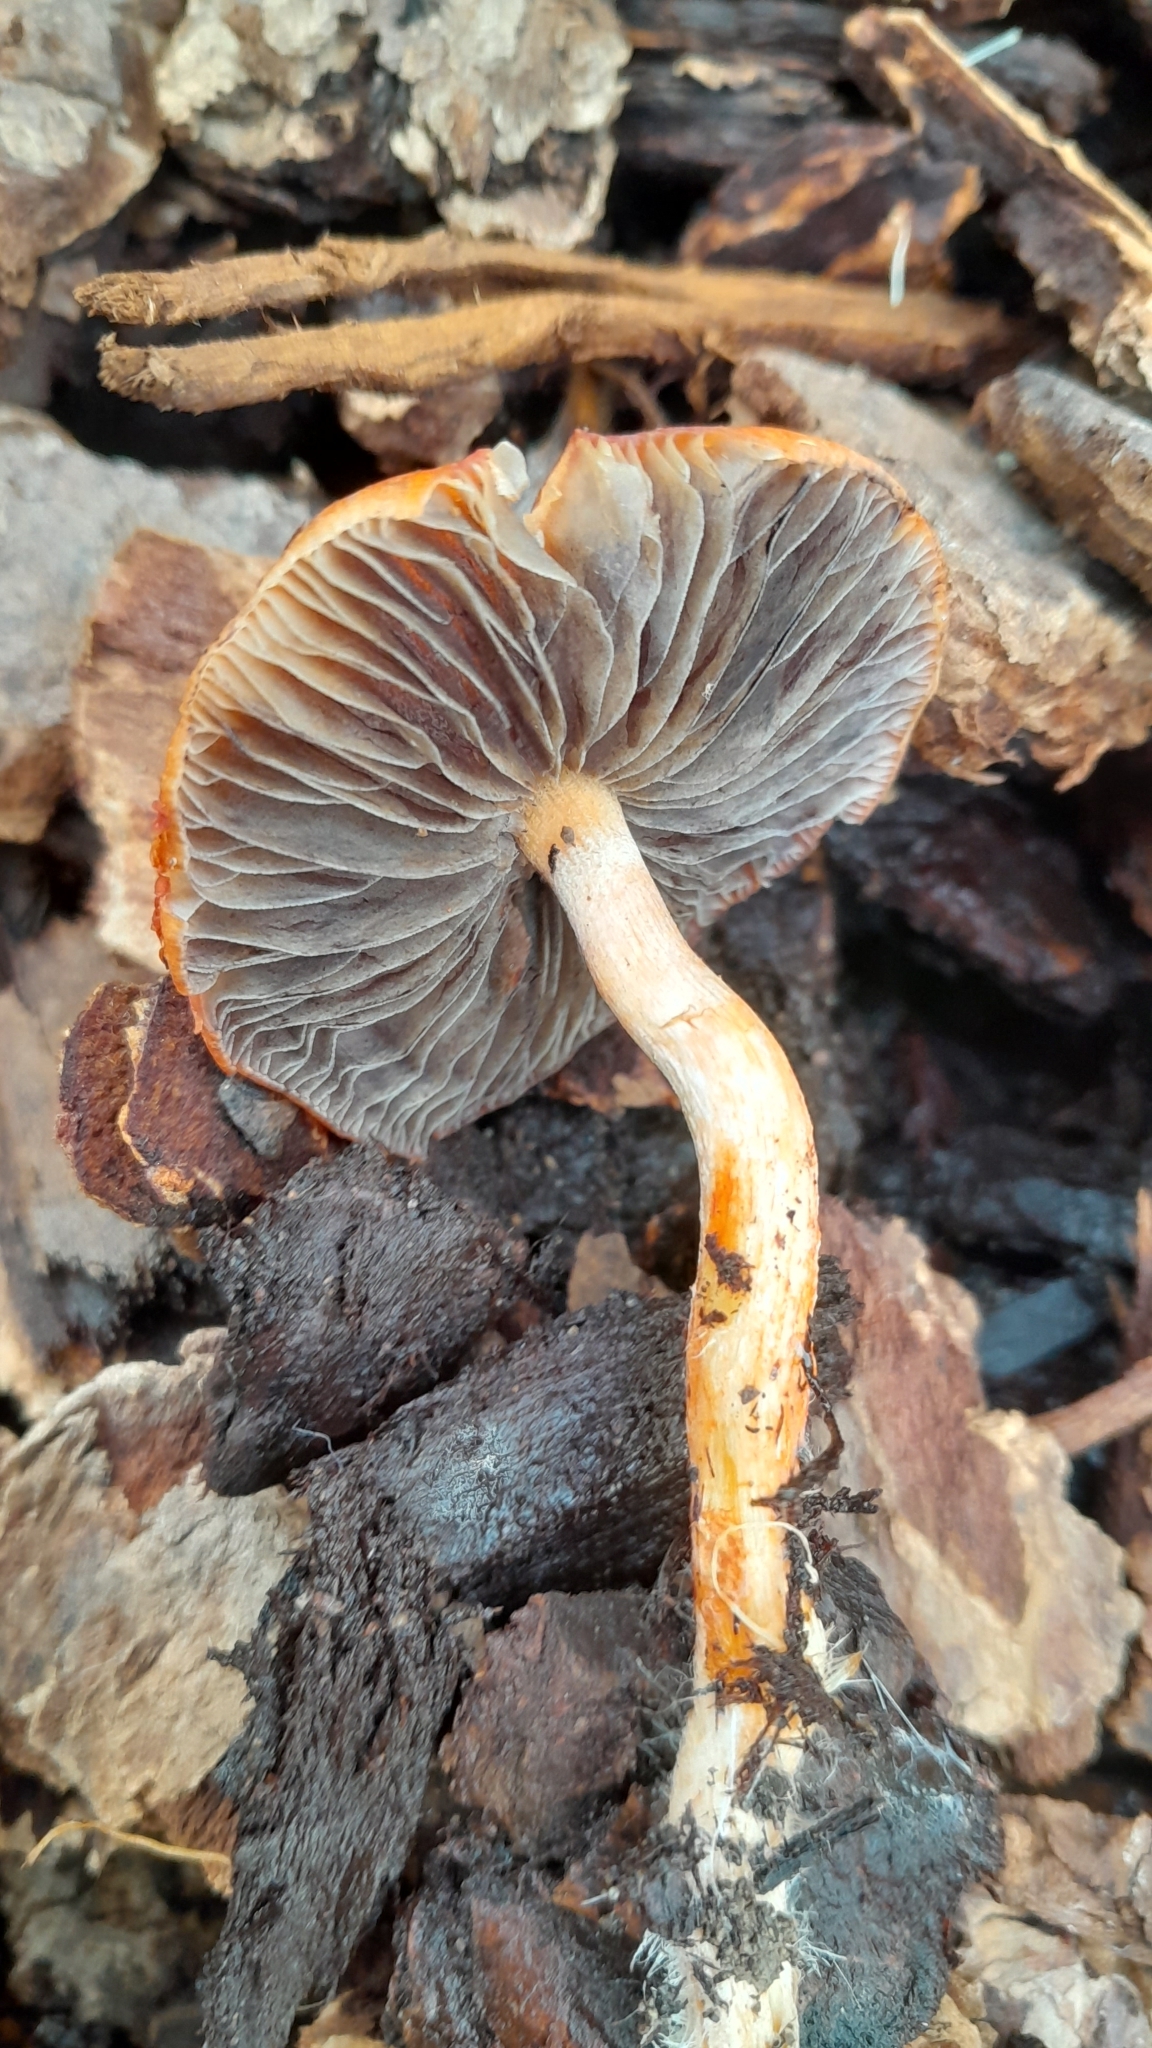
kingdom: Fungi
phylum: Basidiomycota
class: Agaricomycetes
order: Agaricales
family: Strophariaceae
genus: Leratiomyces
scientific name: Leratiomyces ceres
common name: Redlead roundhead
